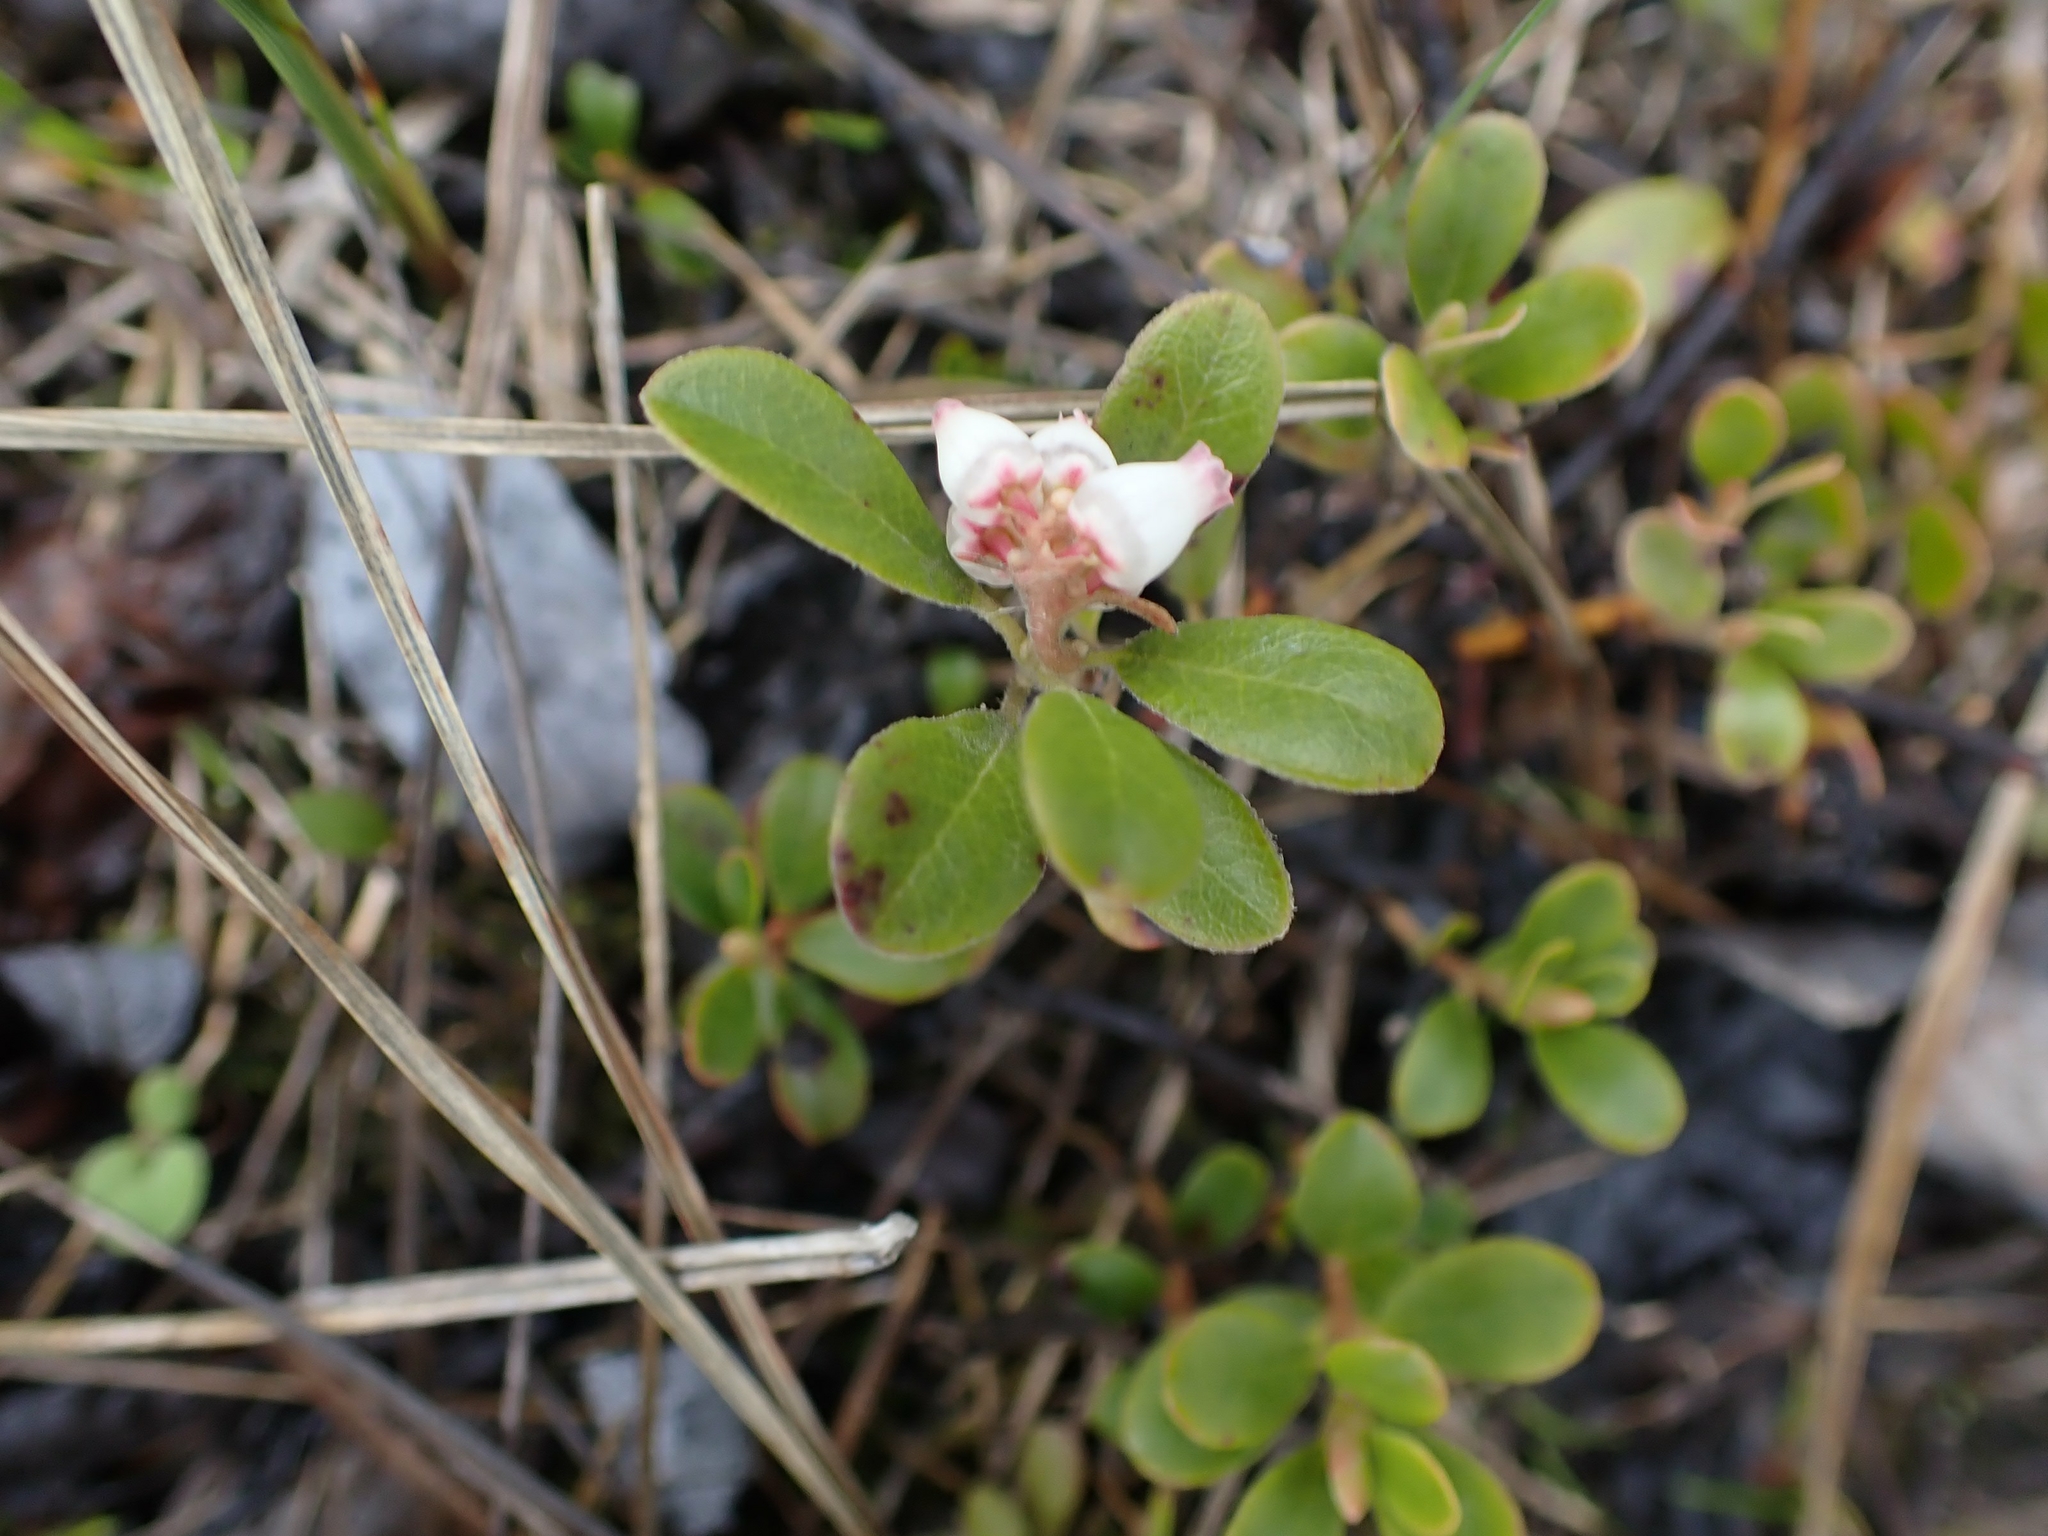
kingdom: Plantae
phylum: Tracheophyta
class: Magnoliopsida
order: Ericales
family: Ericaceae
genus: Arctostaphylos
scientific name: Arctostaphylos uva-ursi
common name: Bearberry
